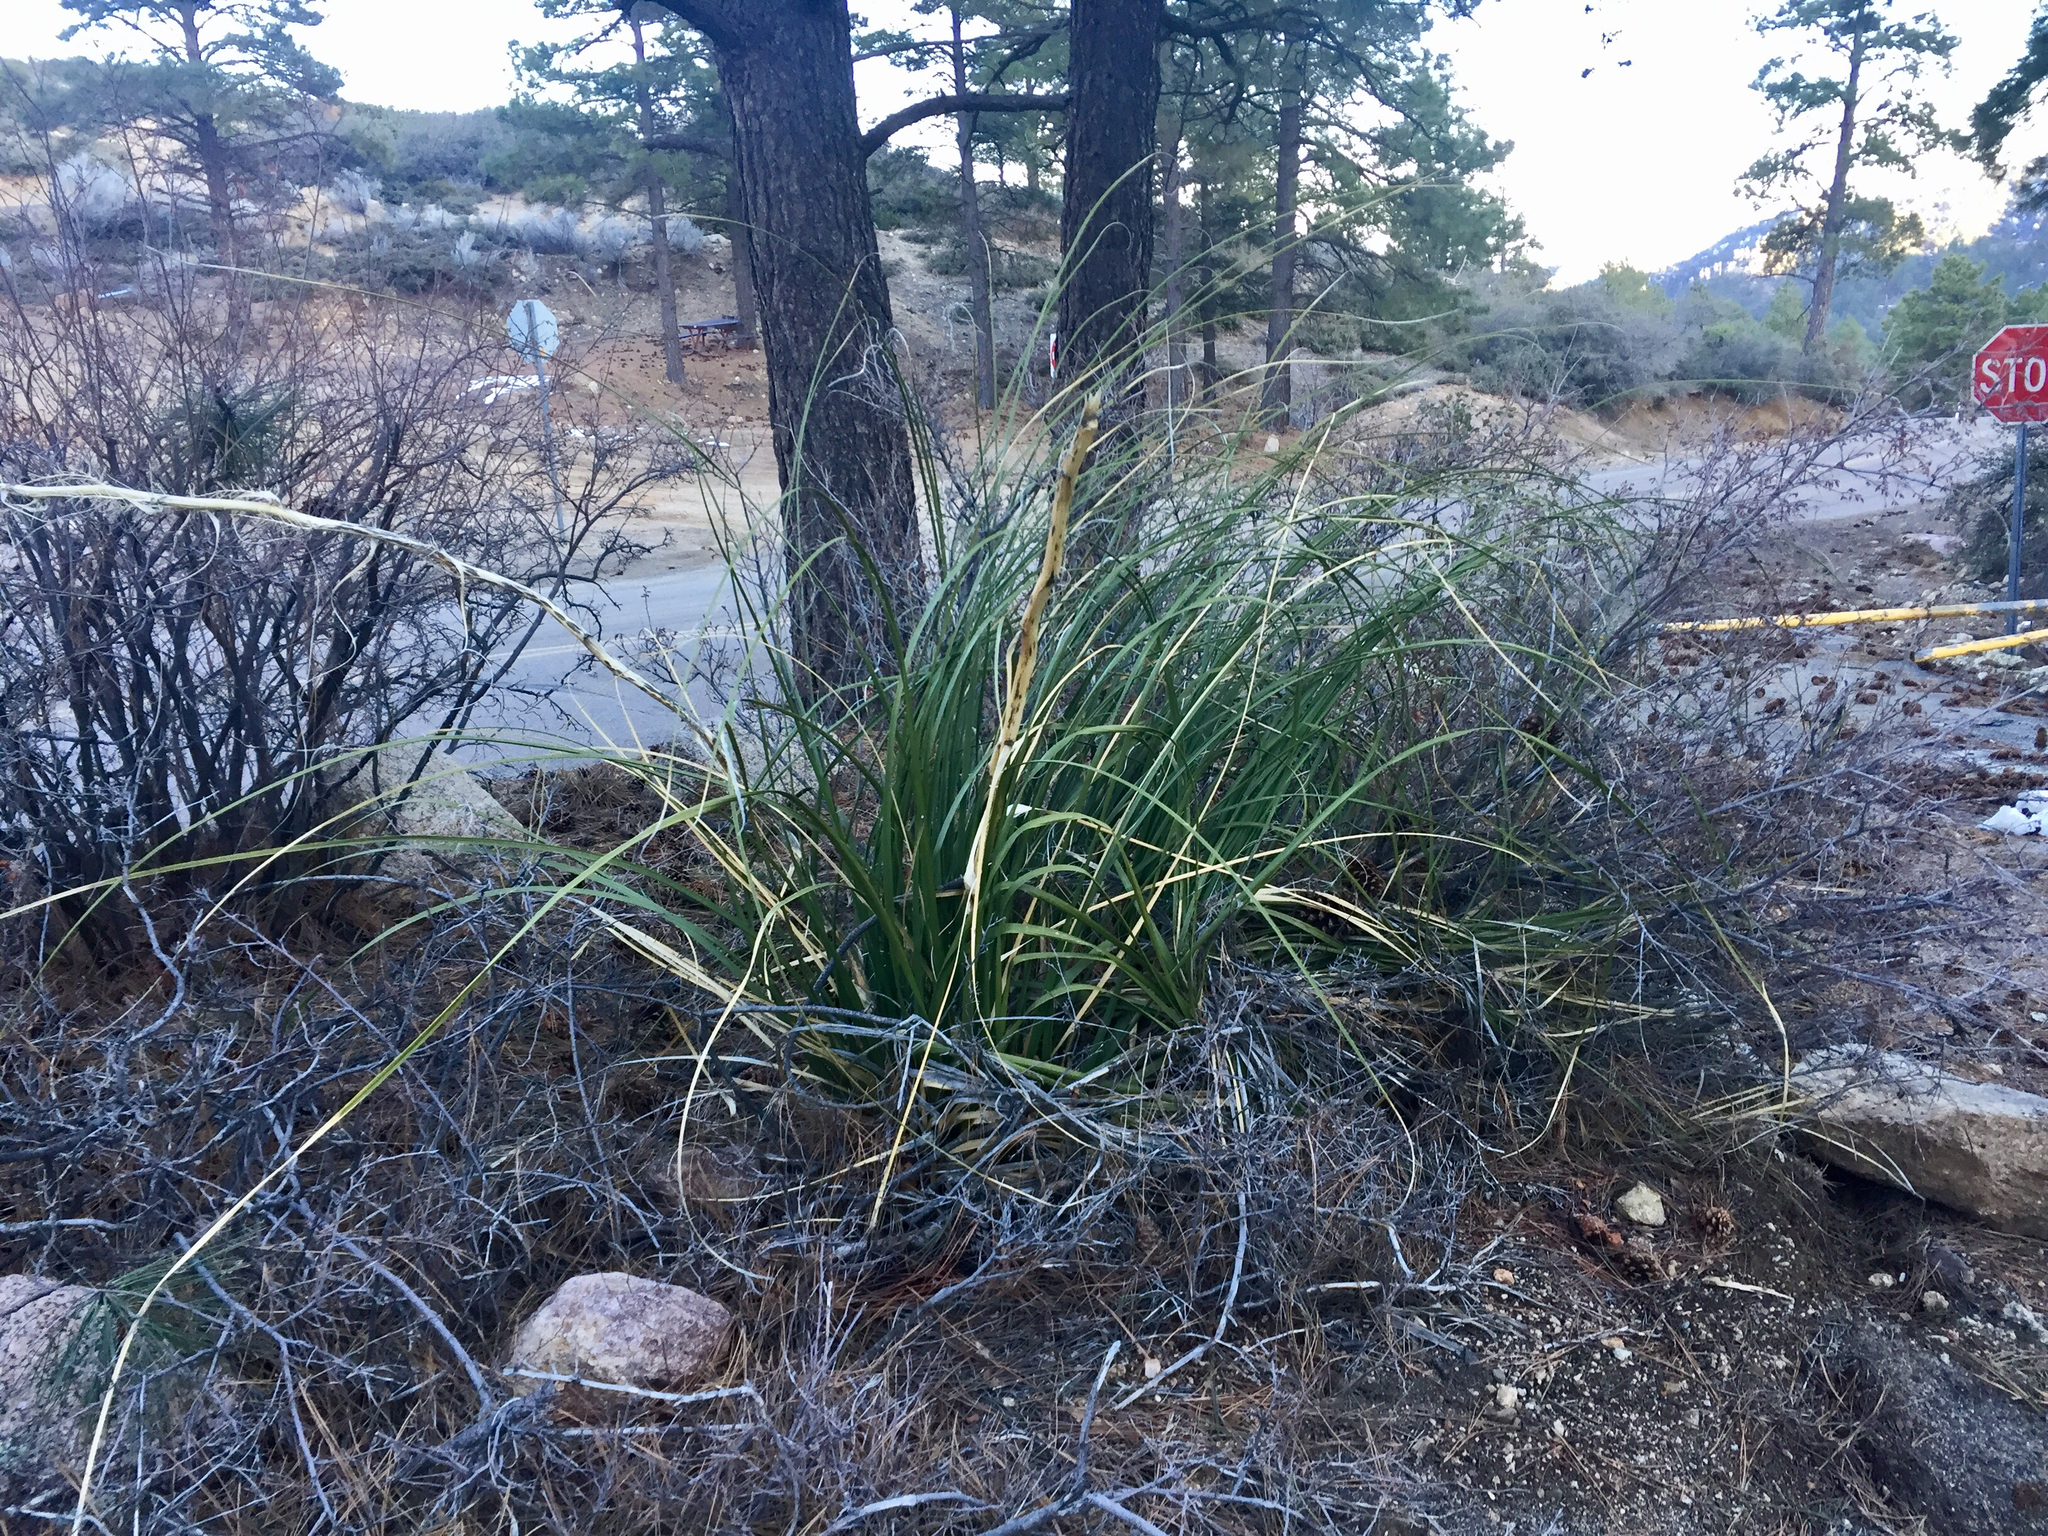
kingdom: Plantae
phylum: Tracheophyta
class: Liliopsida
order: Asparagales
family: Asparagaceae
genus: Nolina
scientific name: Nolina microcarpa
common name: Bear-grass
